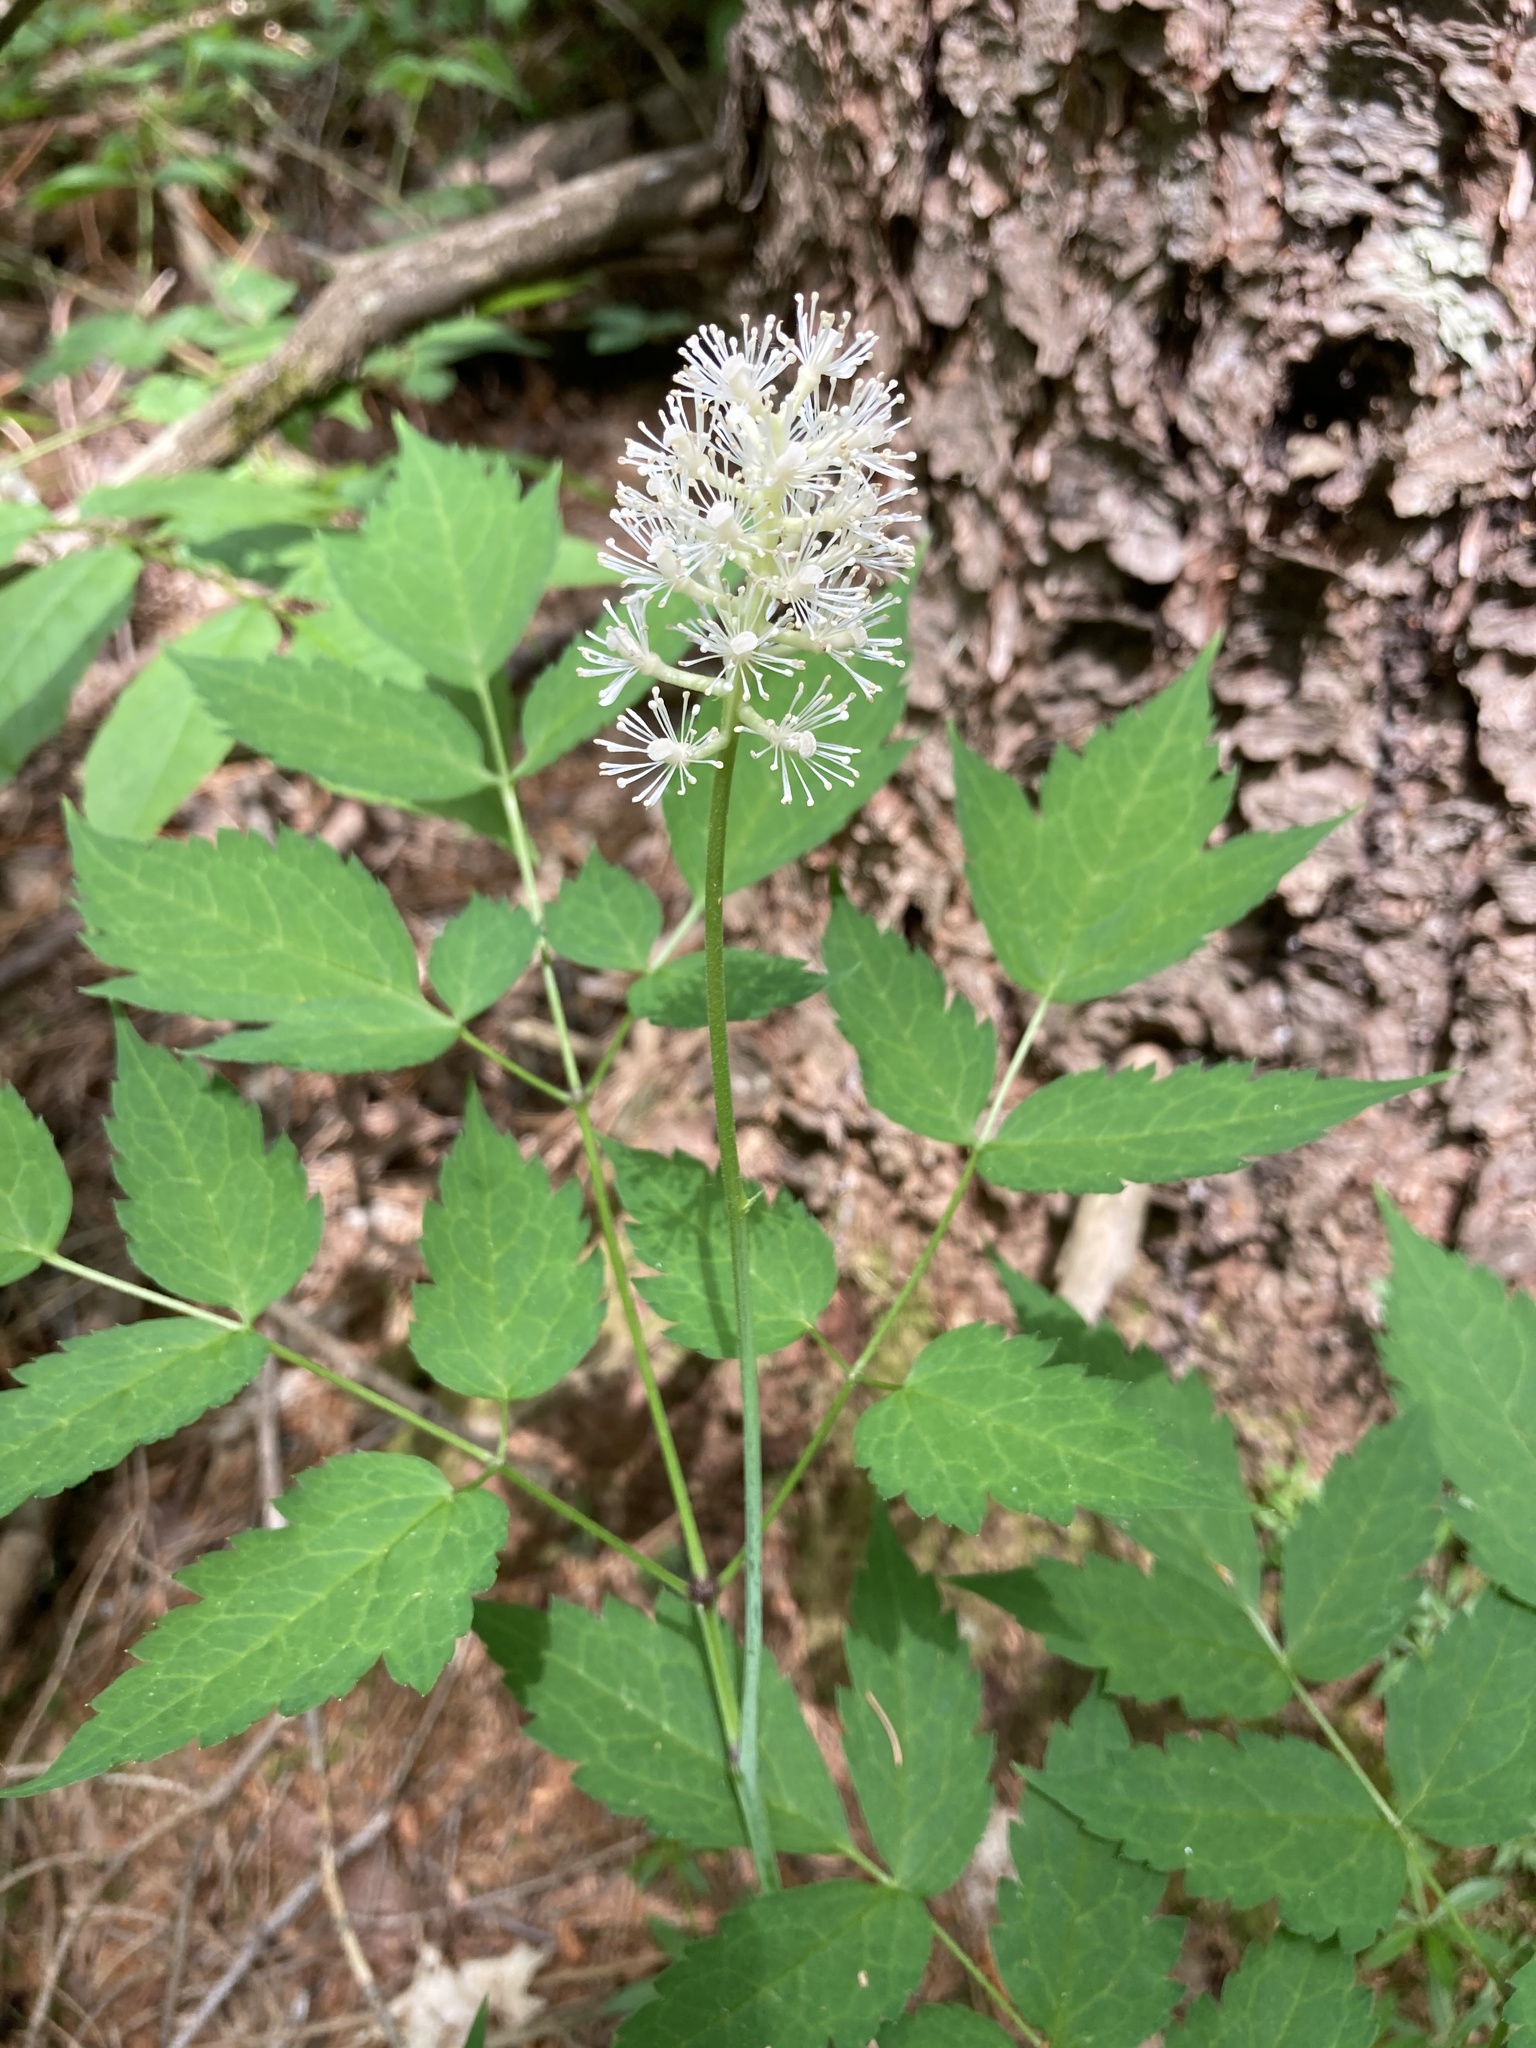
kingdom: Plantae
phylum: Tracheophyta
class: Magnoliopsida
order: Ranunculales
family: Ranunculaceae
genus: Actaea
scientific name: Actaea pachypoda
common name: Doll's-eyes
